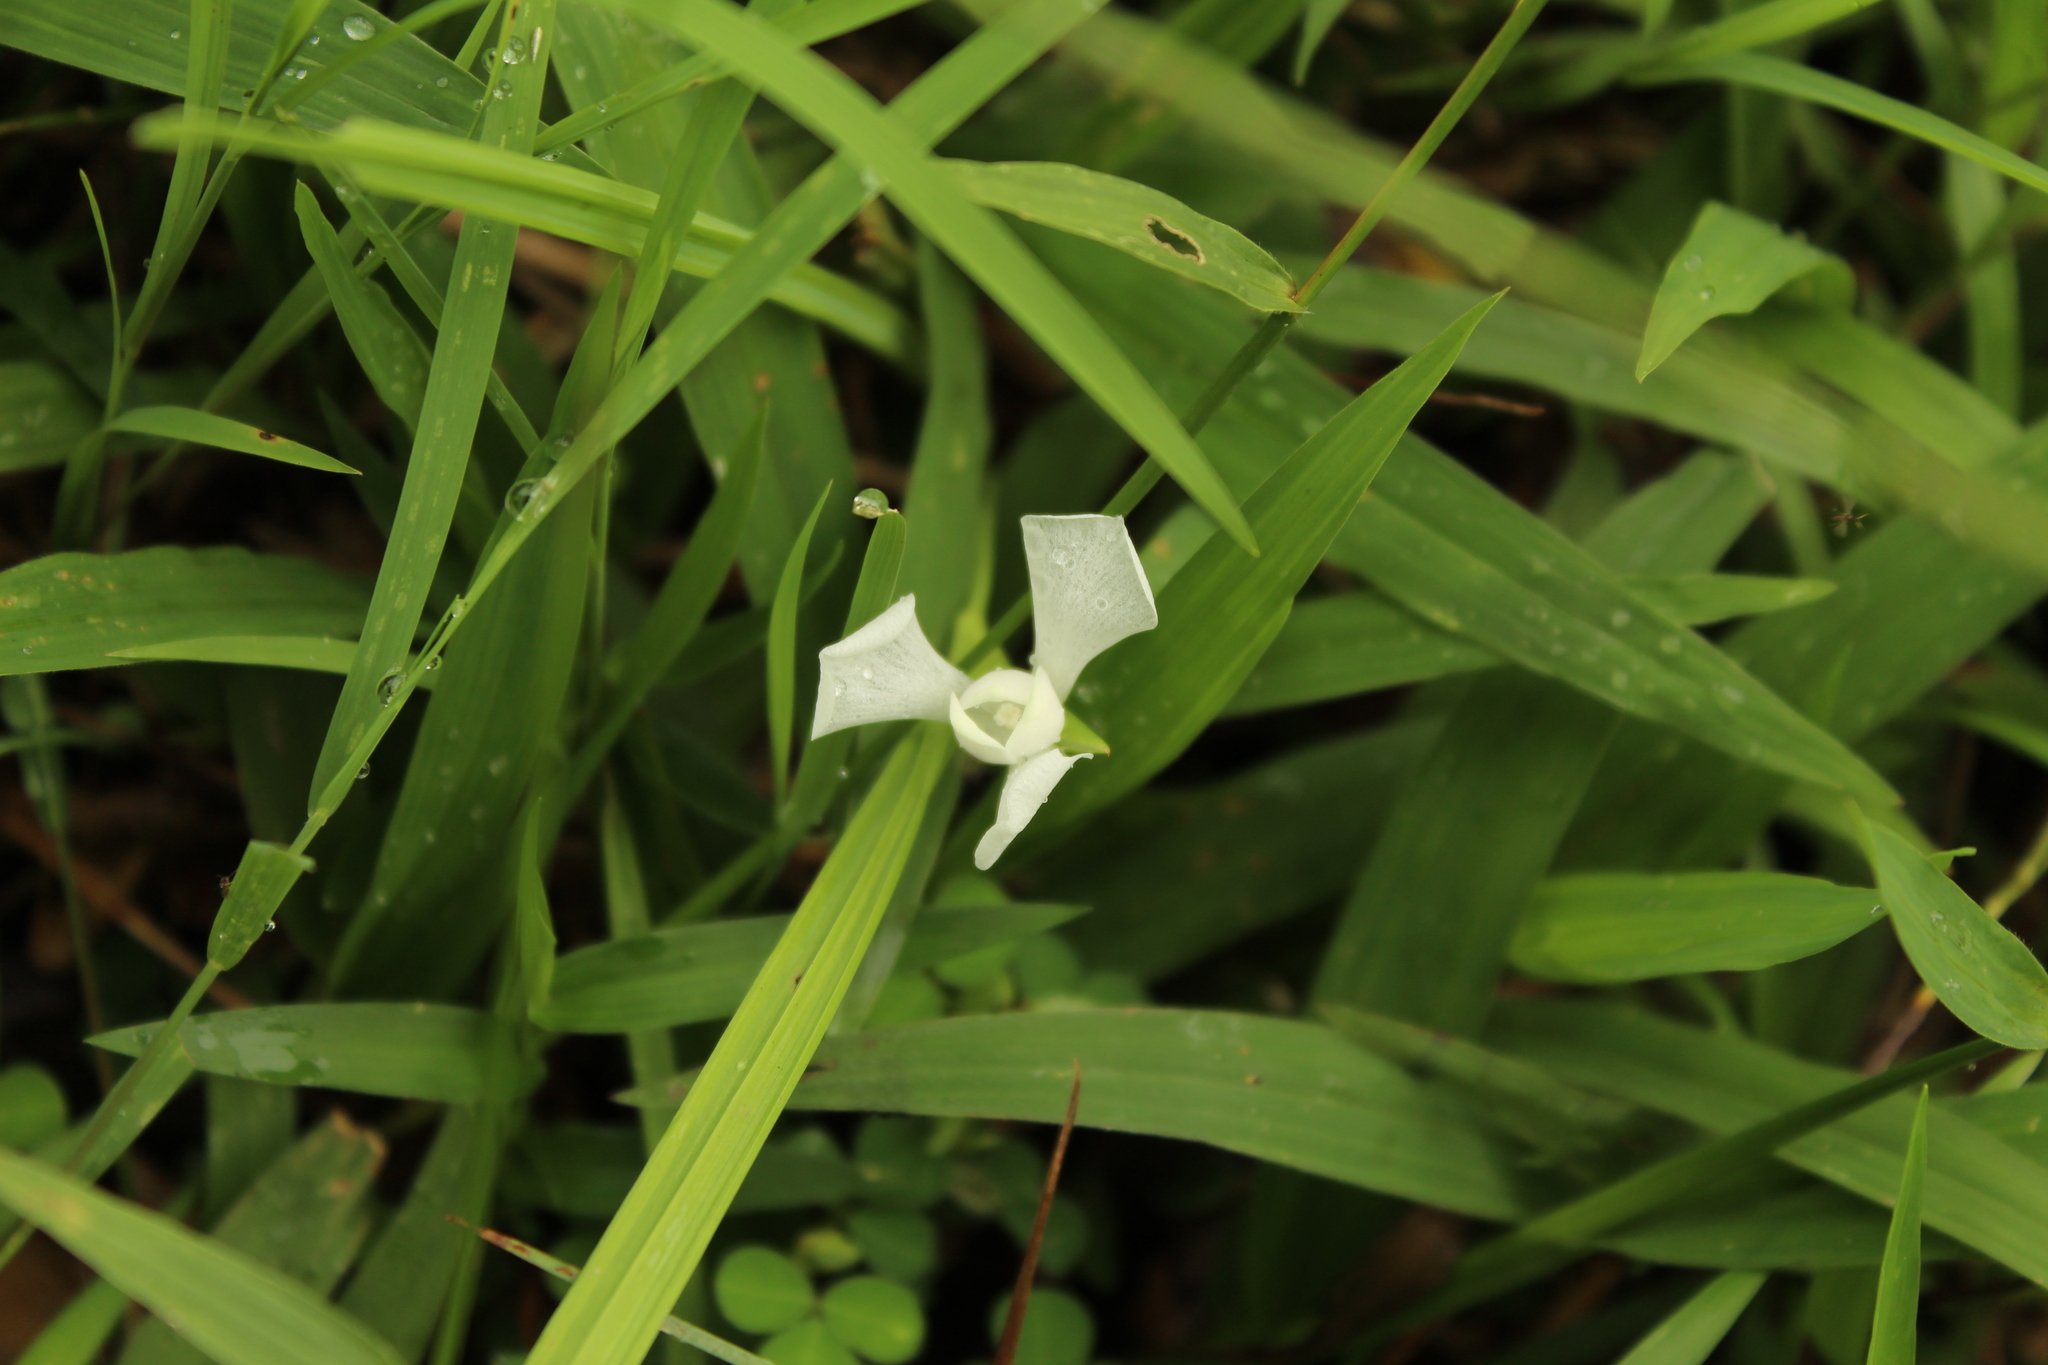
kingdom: Plantae
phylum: Tracheophyta
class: Liliopsida
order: Asparagales
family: Iridaceae
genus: Cipura
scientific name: Cipura paludosa
